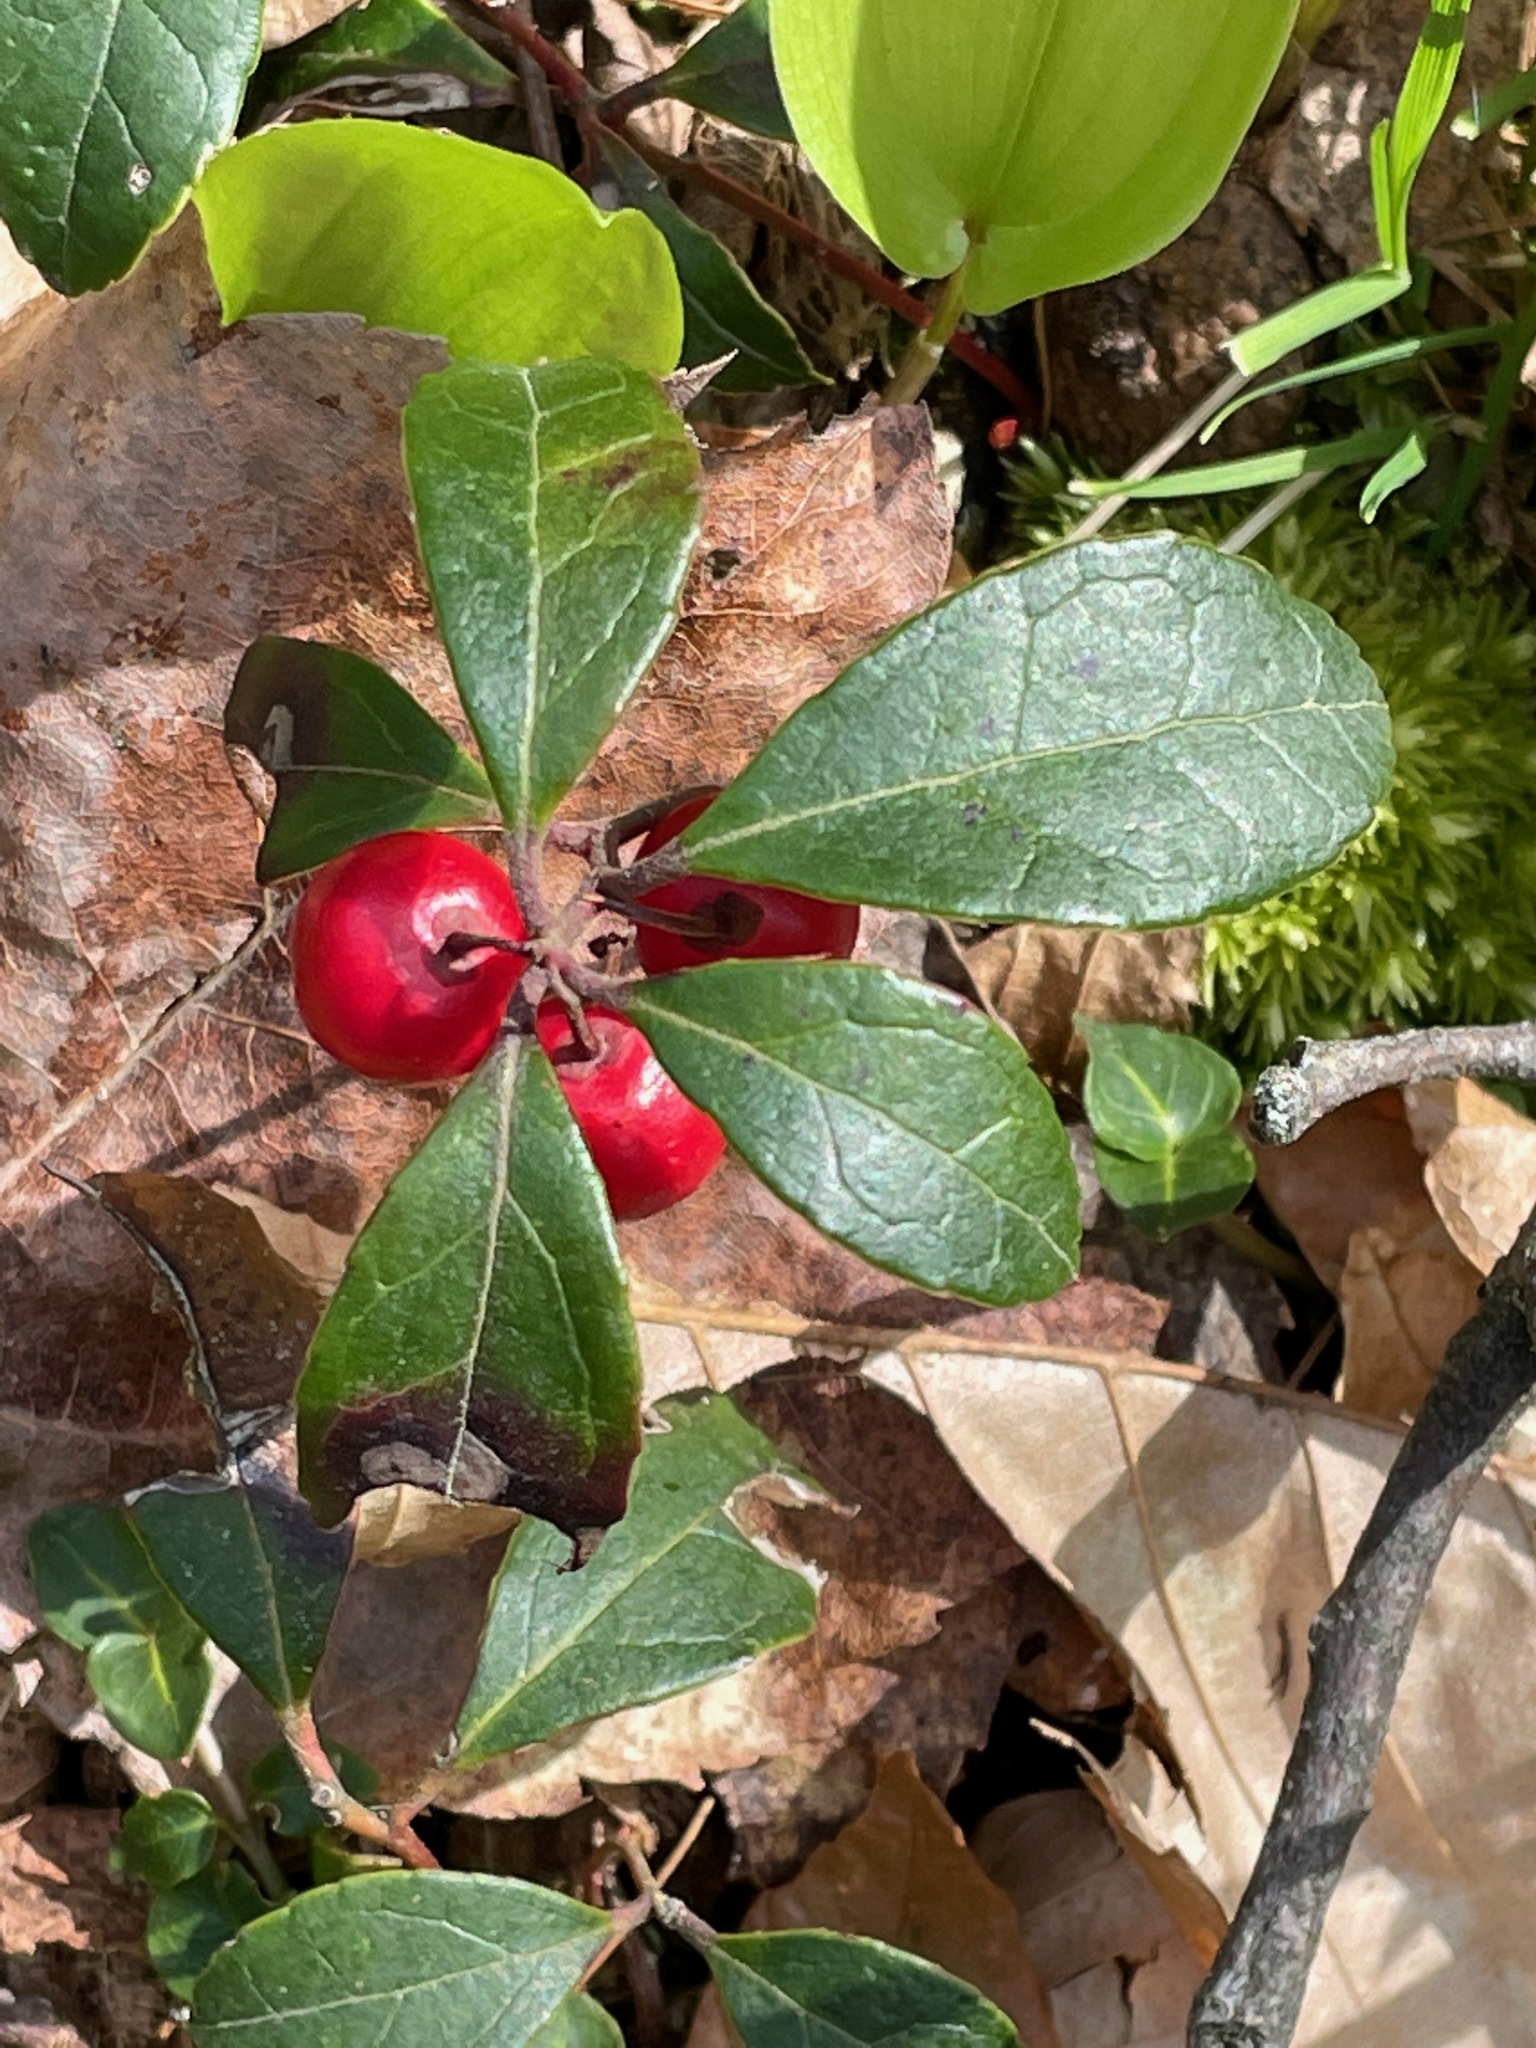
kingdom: Plantae
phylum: Tracheophyta
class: Magnoliopsida
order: Ericales
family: Ericaceae
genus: Gaultheria
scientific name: Gaultheria procumbens
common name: Checkerberry
